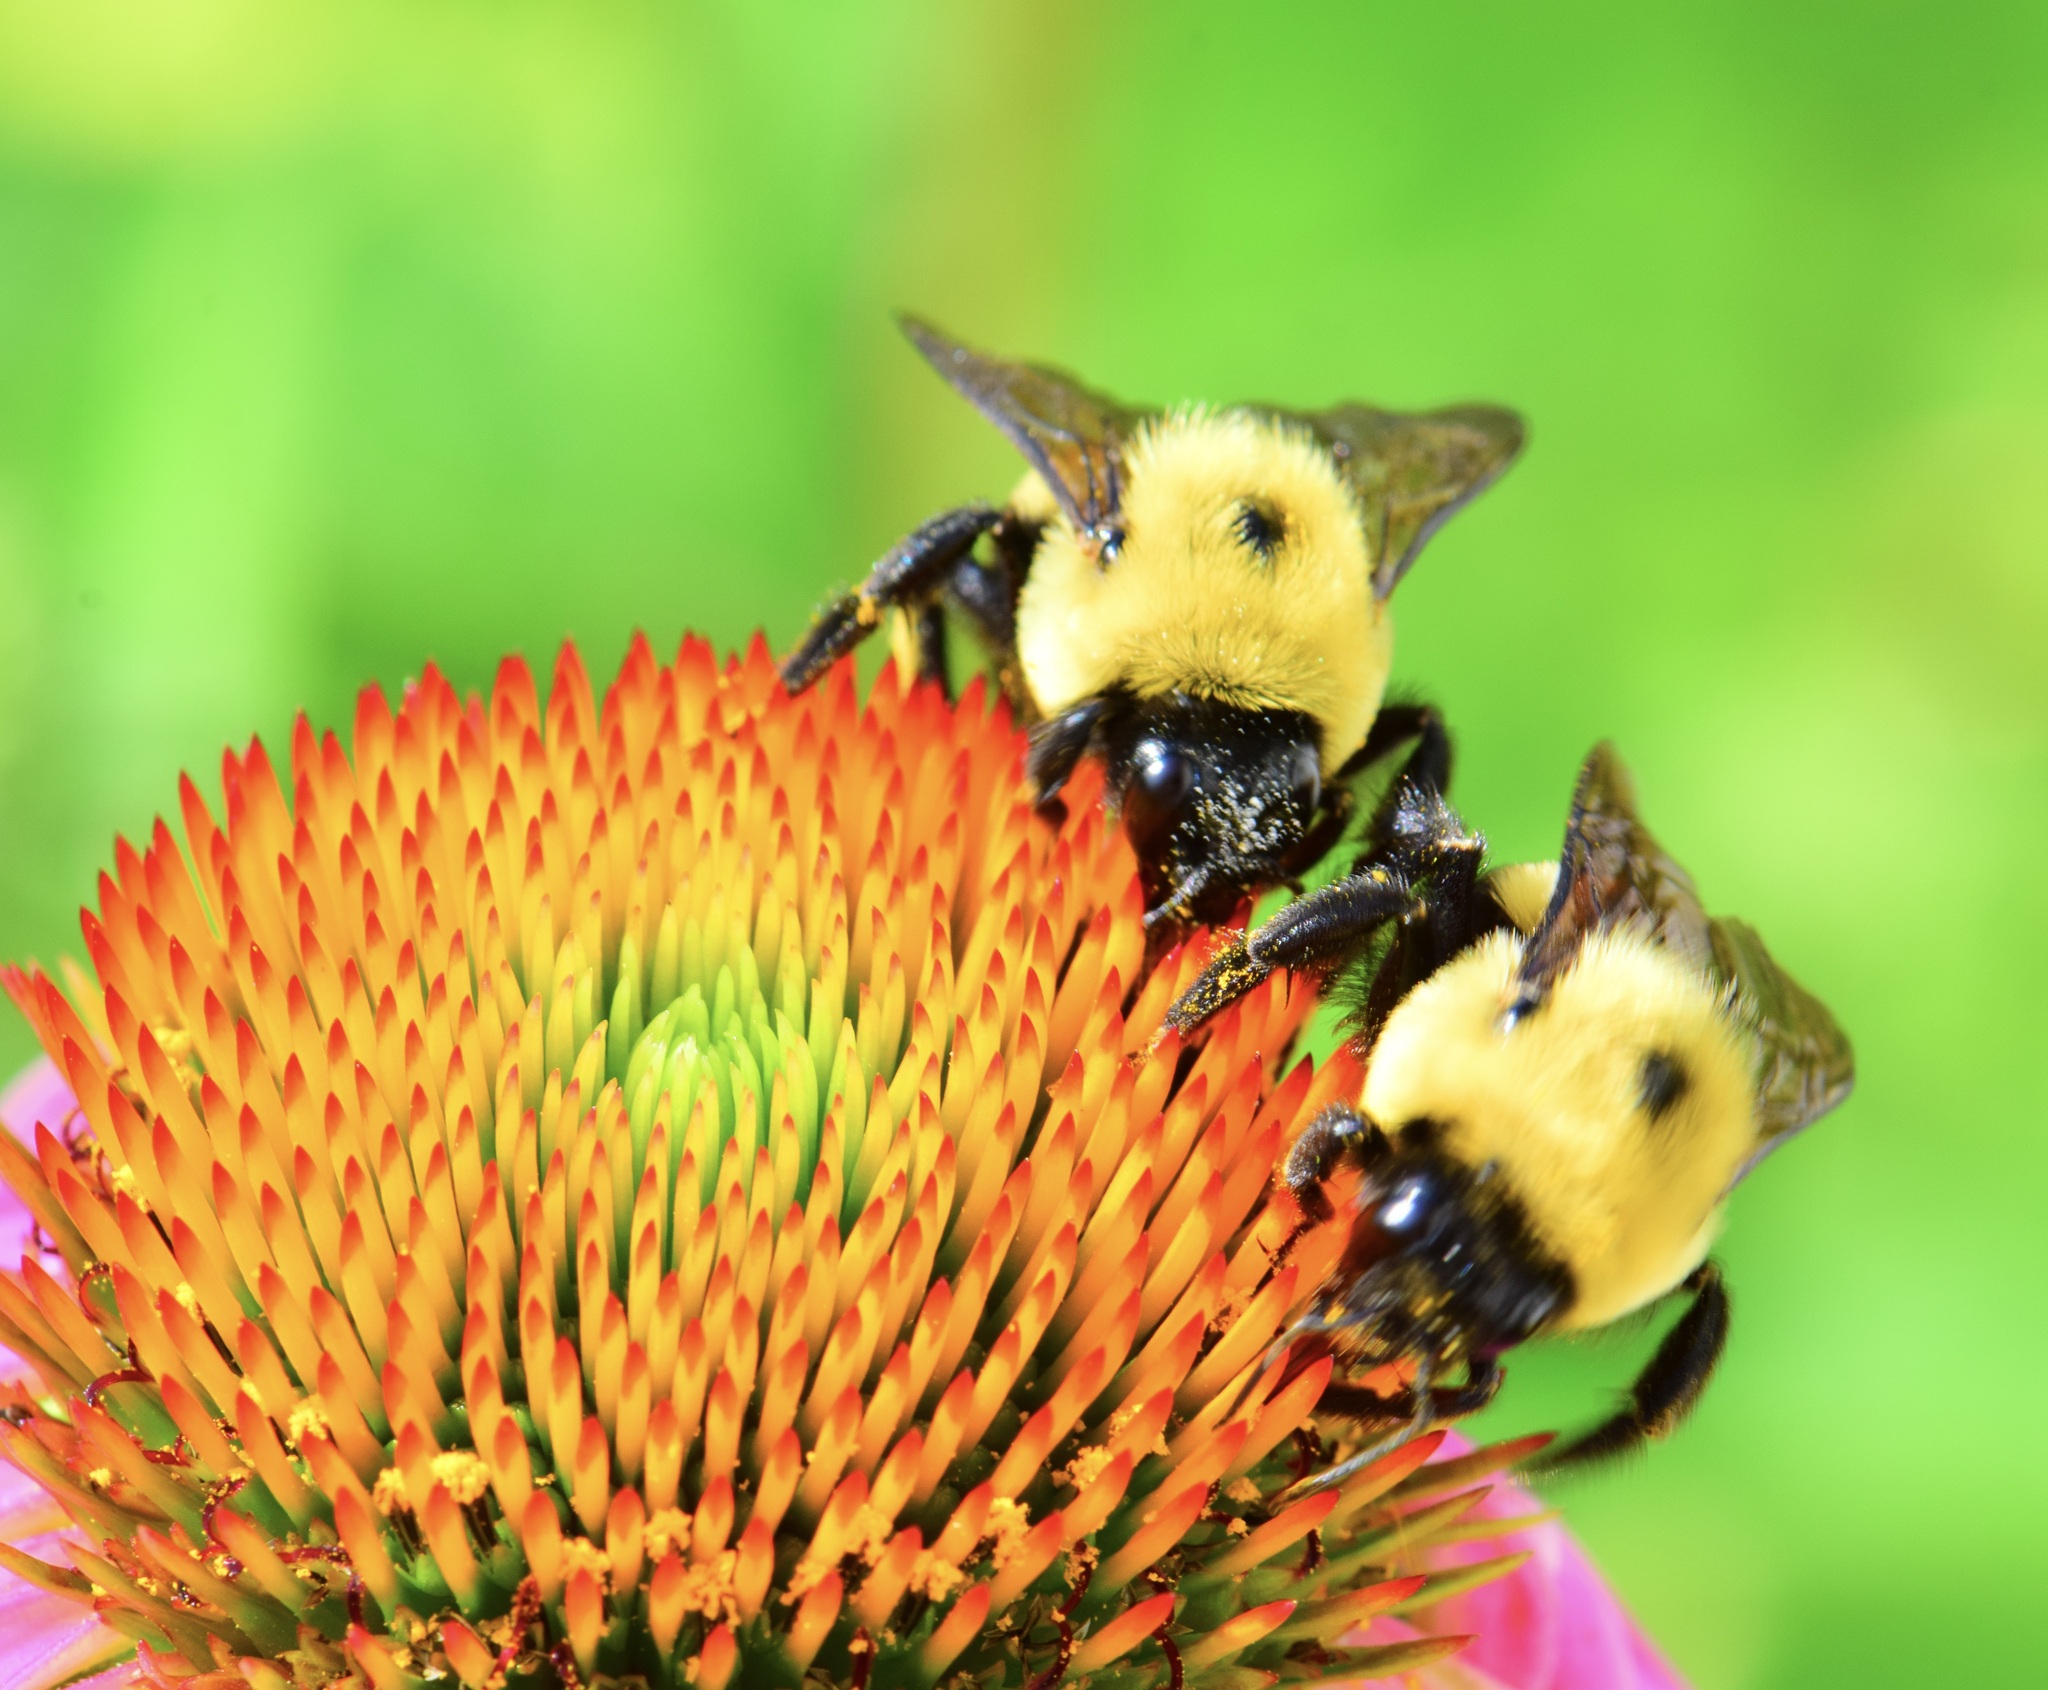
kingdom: Animalia
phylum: Arthropoda
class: Insecta
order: Hymenoptera
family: Apidae
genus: Bombus
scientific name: Bombus griseocollis
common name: Brown-belted bumble bee
